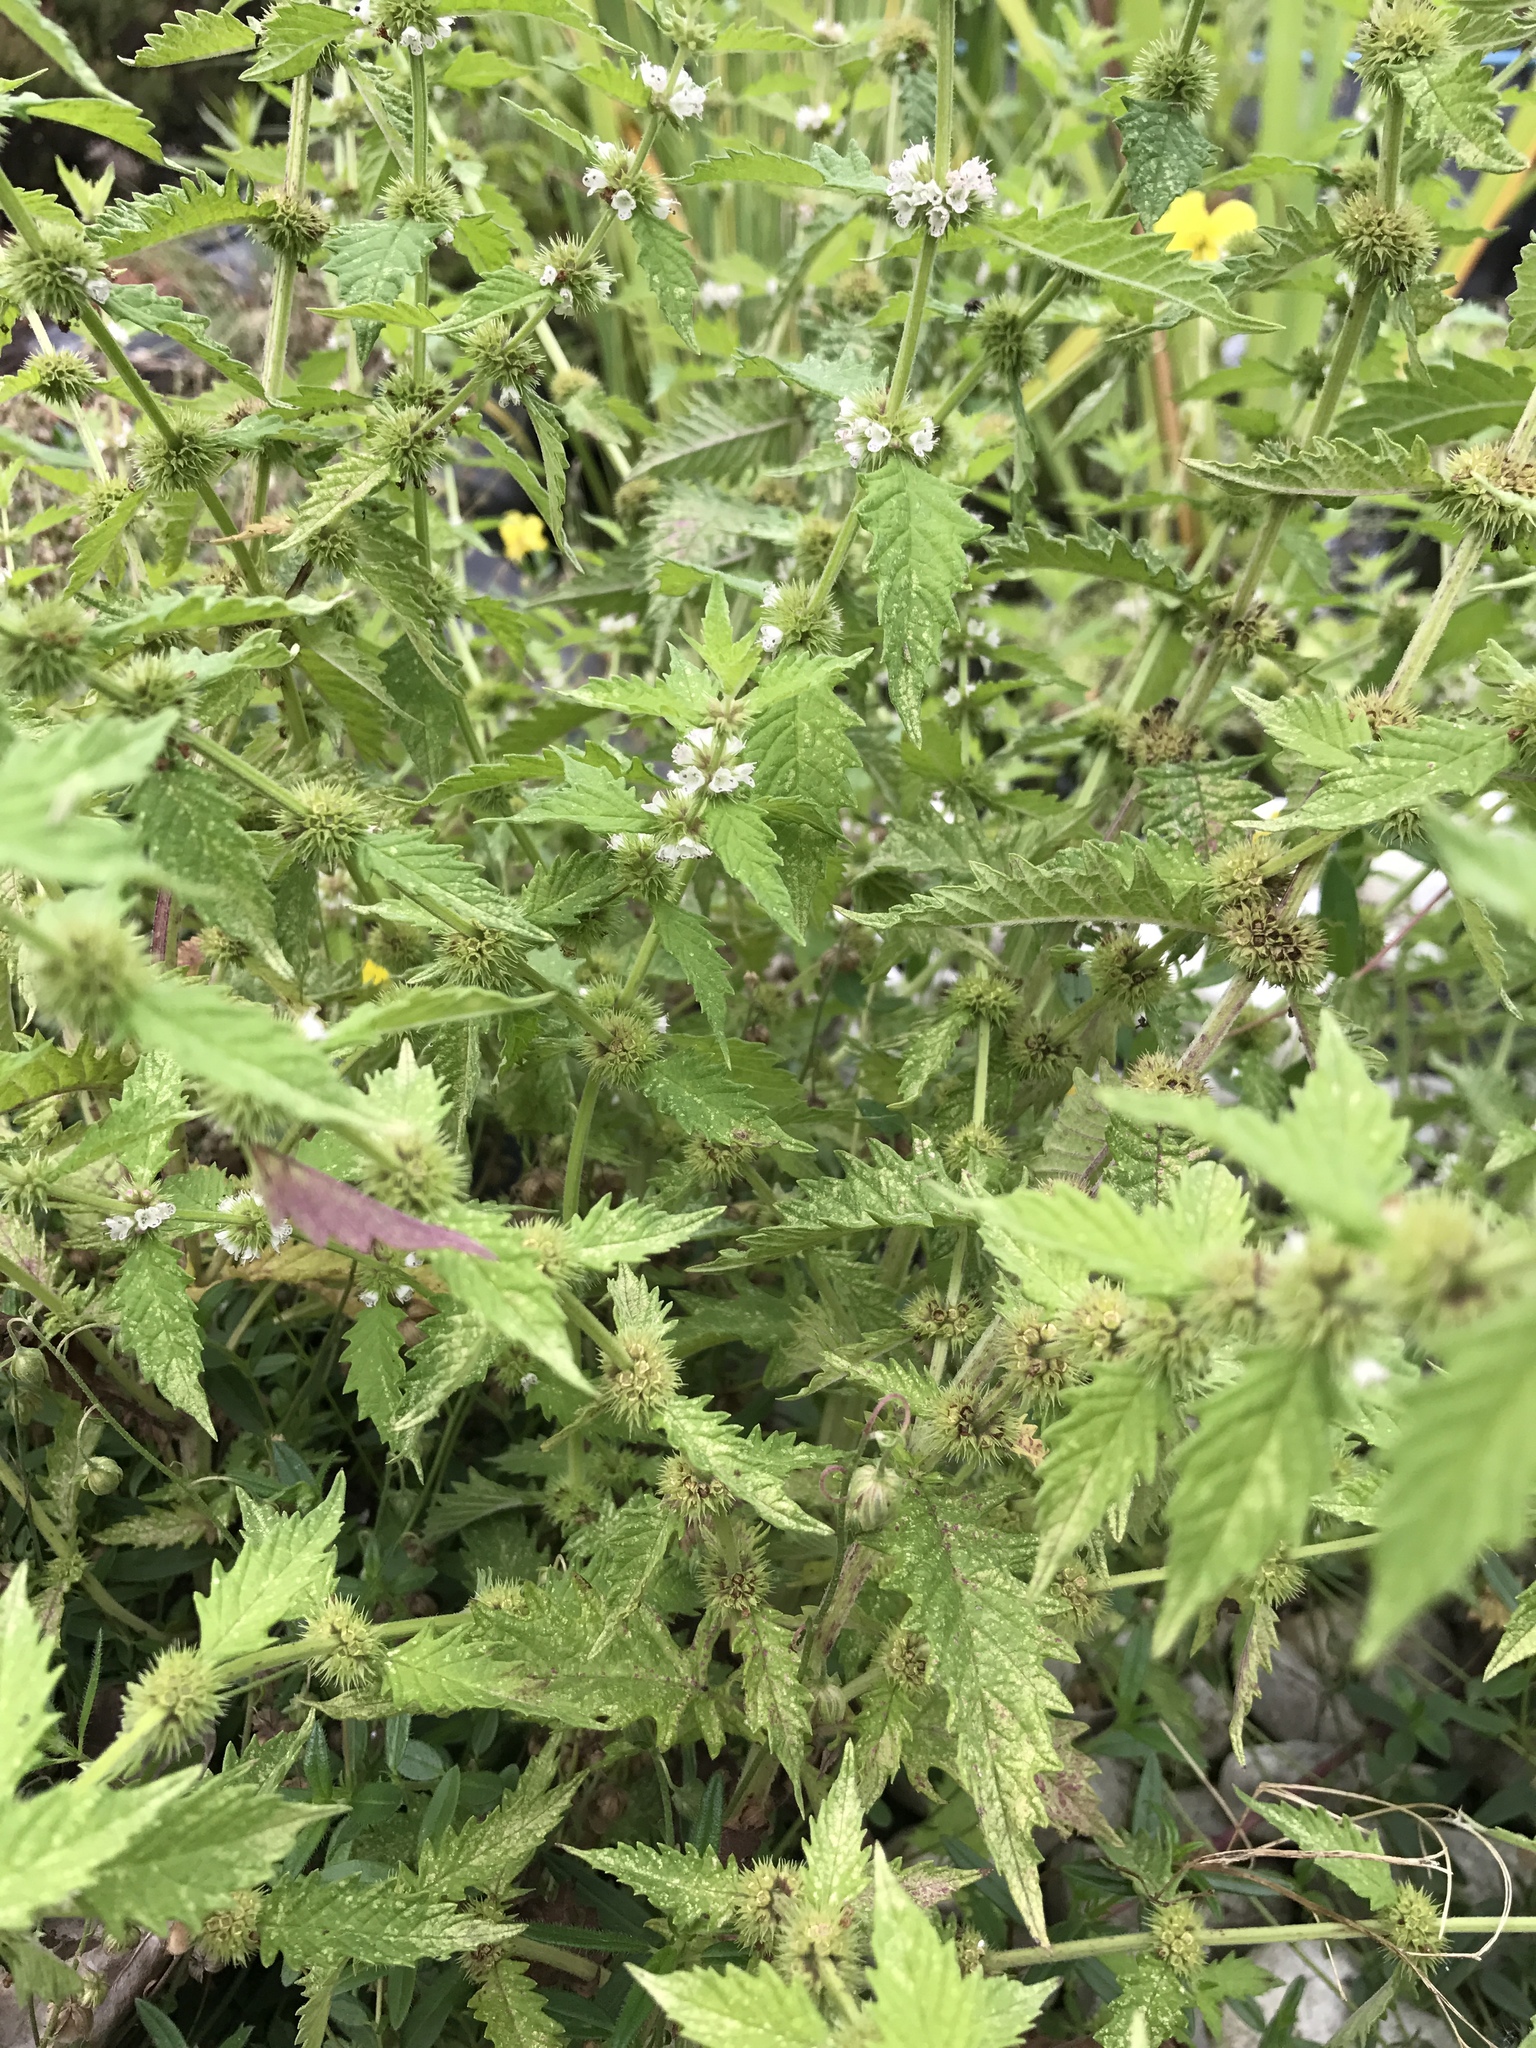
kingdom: Plantae
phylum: Tracheophyta
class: Magnoliopsida
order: Lamiales
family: Lamiaceae
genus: Lycopus
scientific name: Lycopus europaeus
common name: European bugleweed
